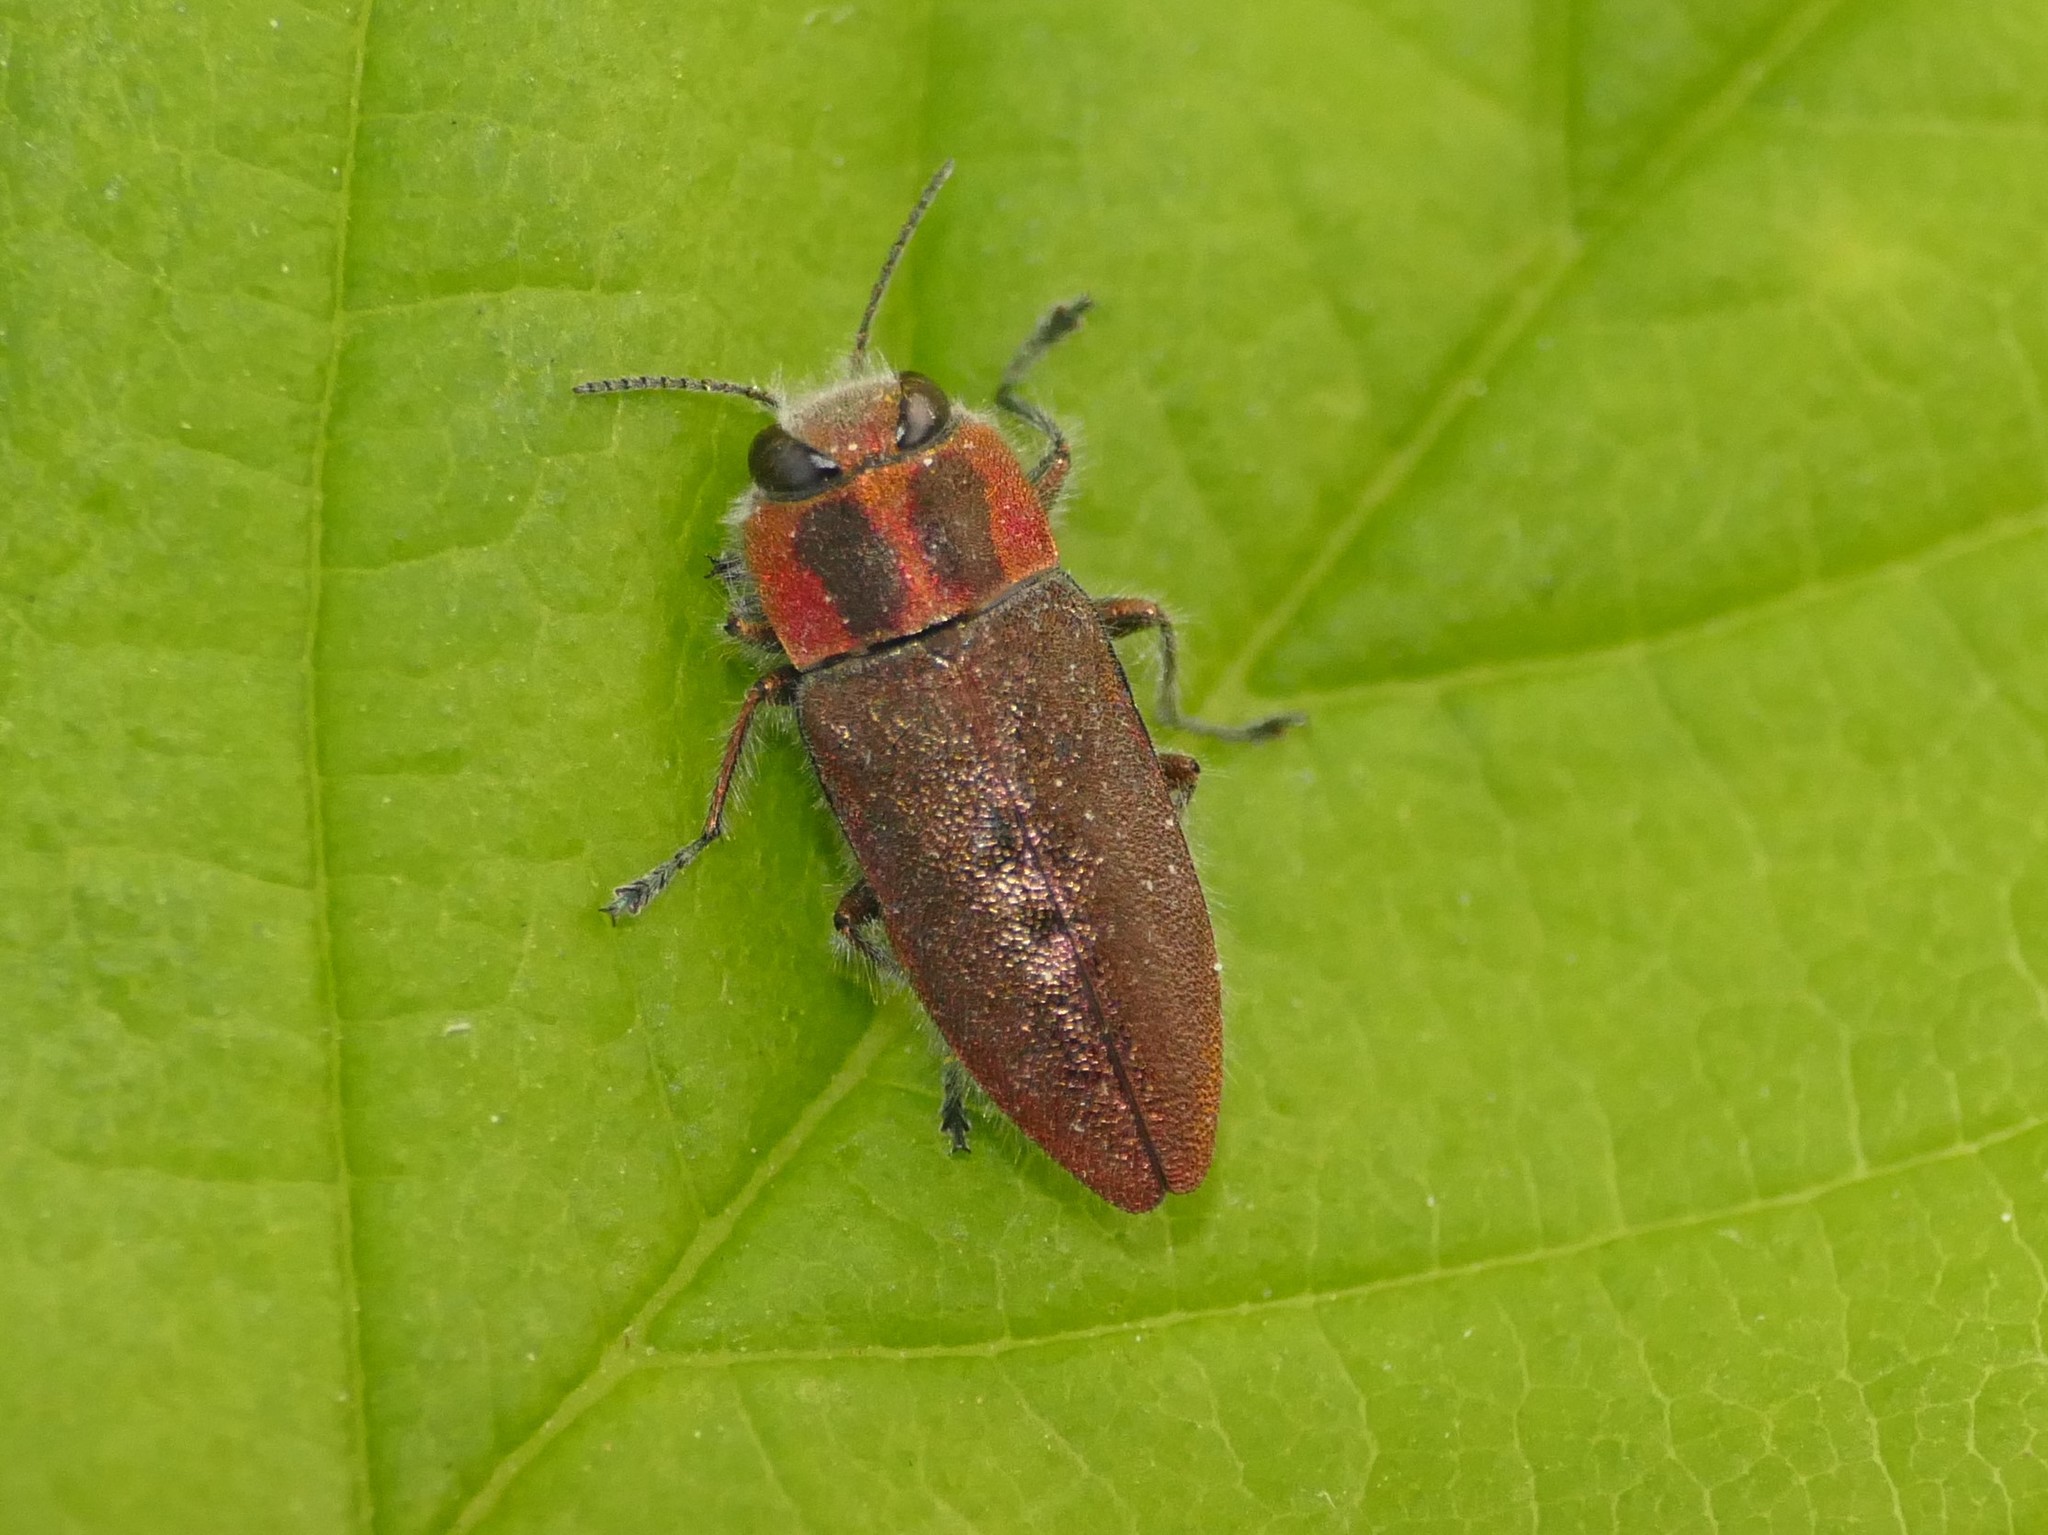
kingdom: Animalia
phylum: Arthropoda
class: Insecta
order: Coleoptera
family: Buprestidae
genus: Anthaxia
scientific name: Anthaxia manca
